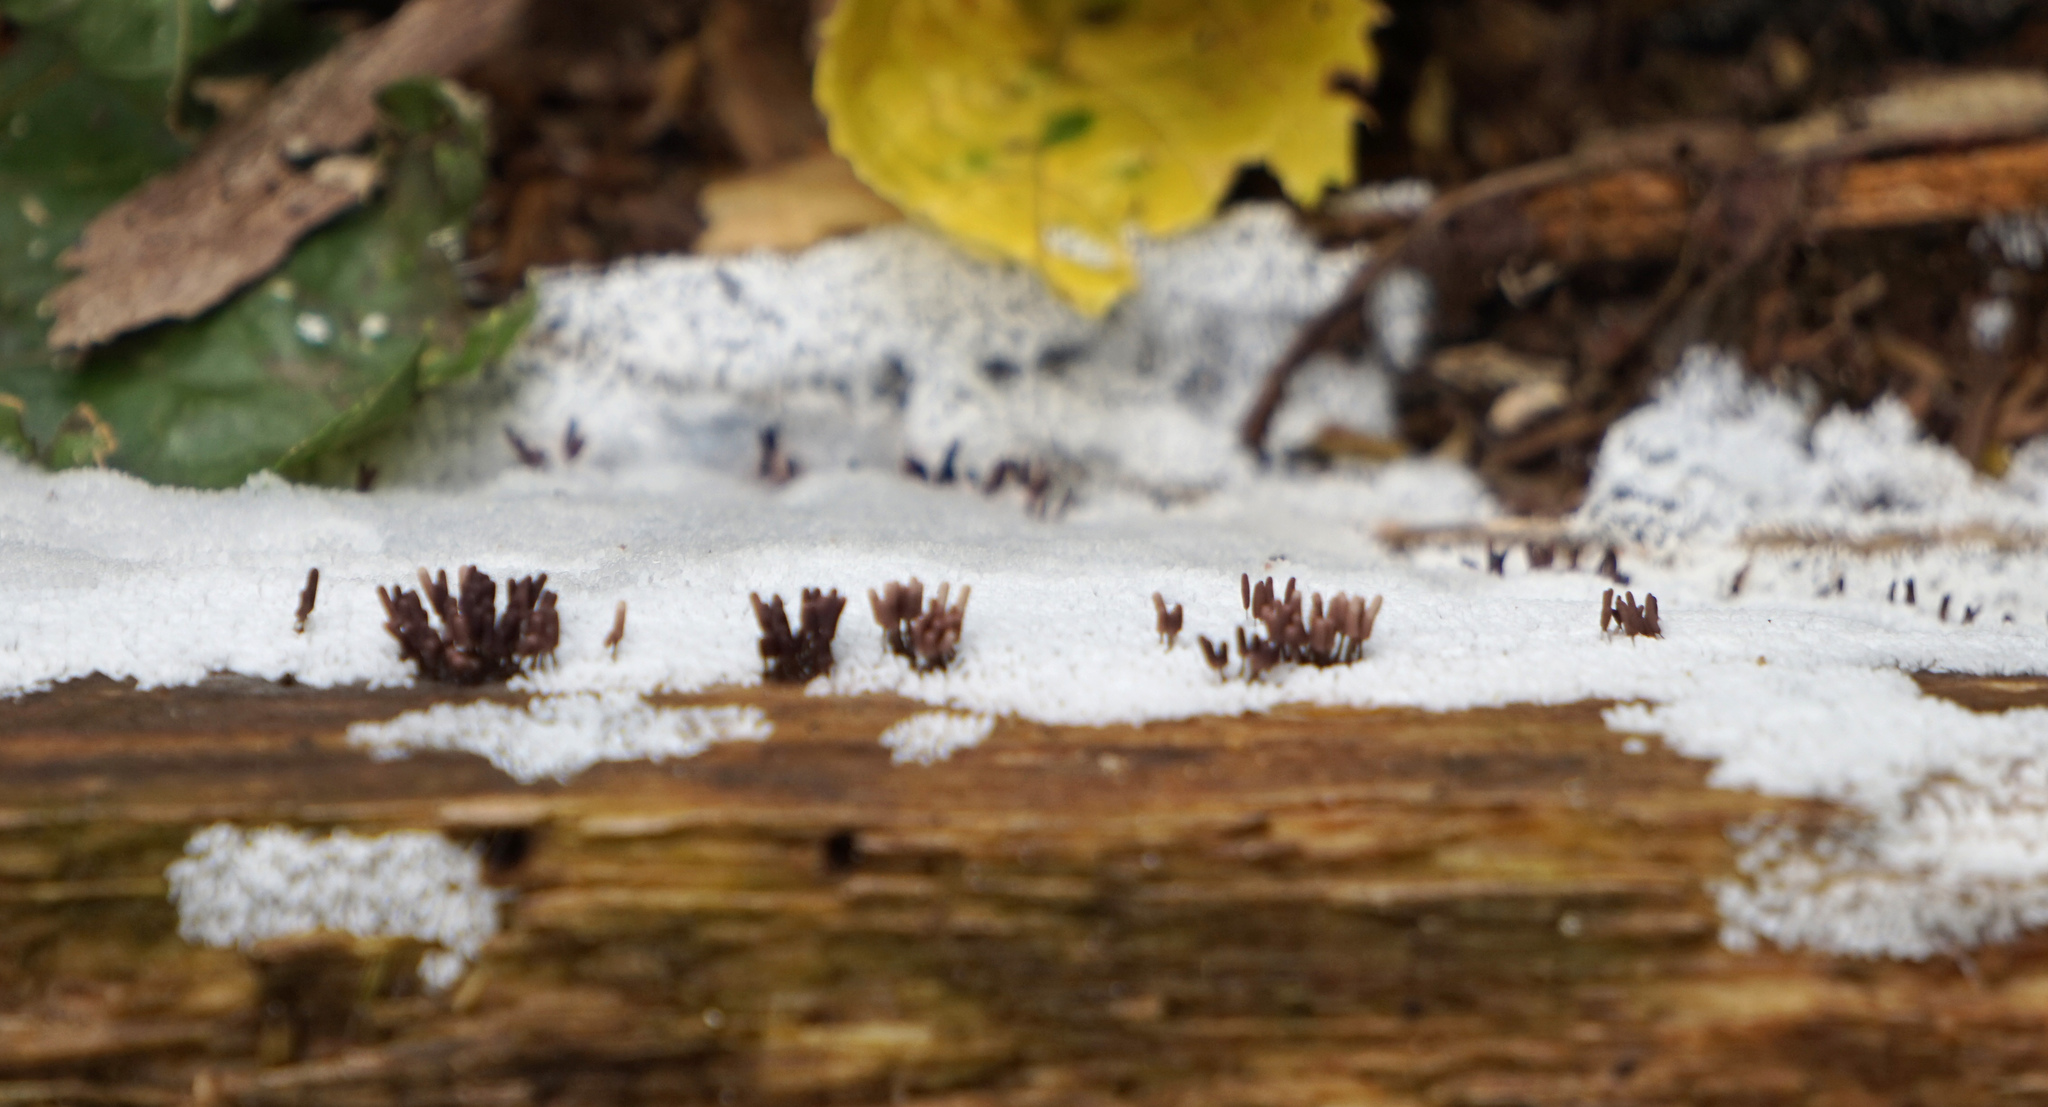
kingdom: Protozoa
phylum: Mycetozoa
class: Myxomycetes
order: Trichiales
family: Arcyriaceae
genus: Arcyria
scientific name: Arcyria denudata
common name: Carnival candy slime mold
